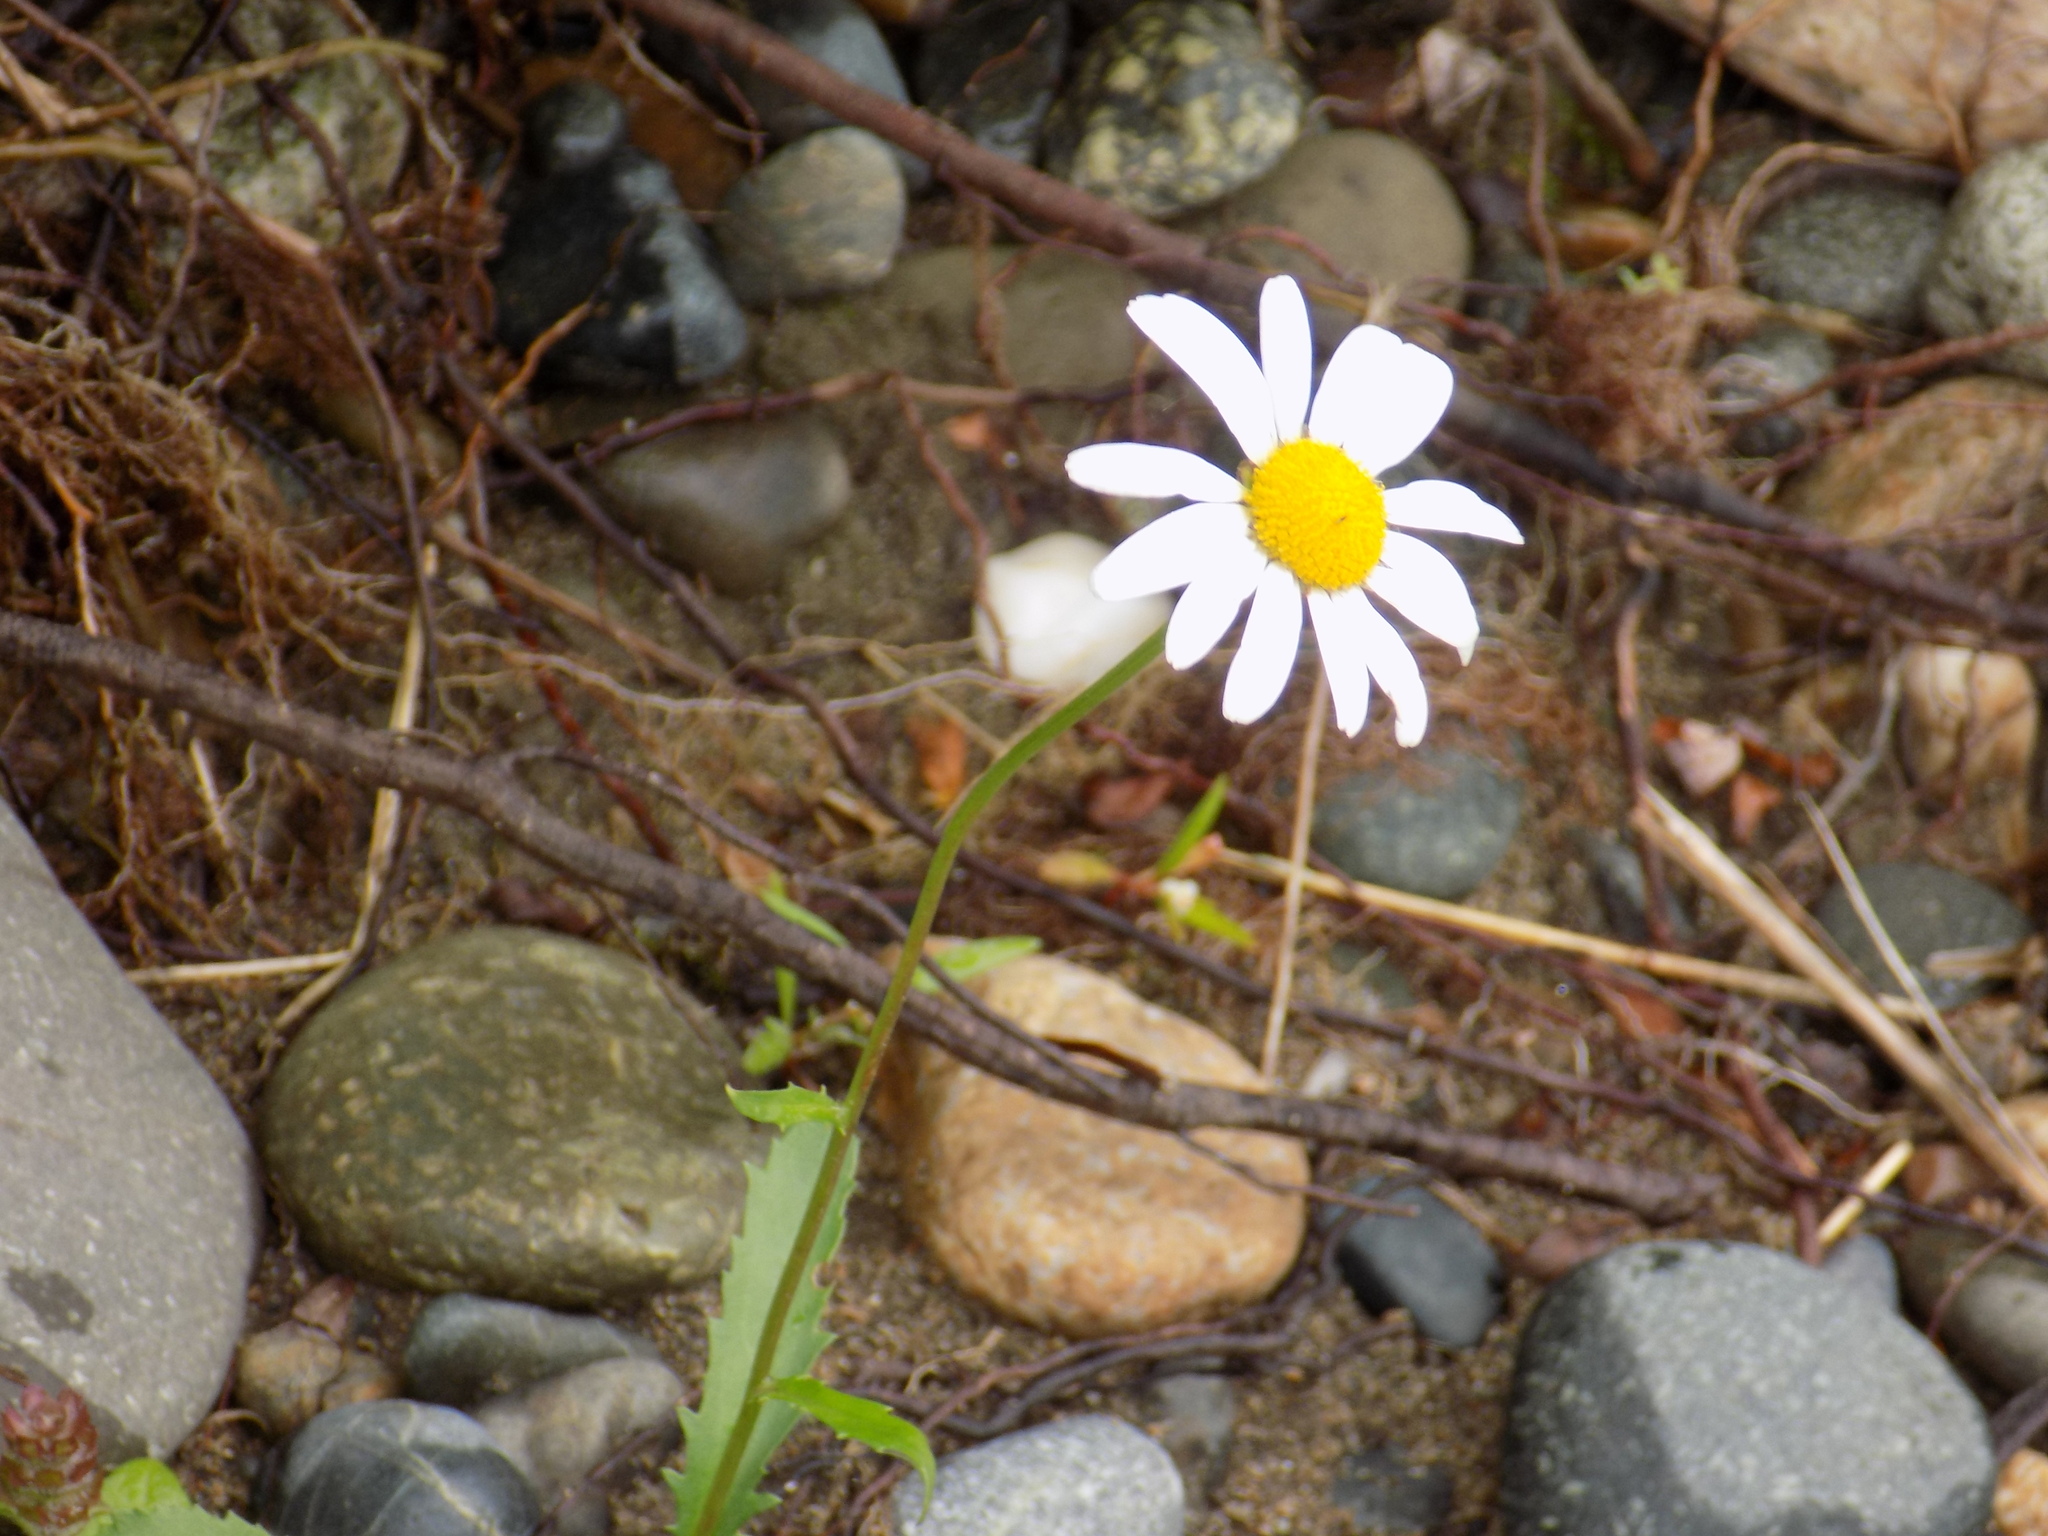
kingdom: Plantae
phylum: Tracheophyta
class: Magnoliopsida
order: Asterales
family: Asteraceae
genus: Leucanthemum
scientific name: Leucanthemum vulgare
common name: Oxeye daisy
